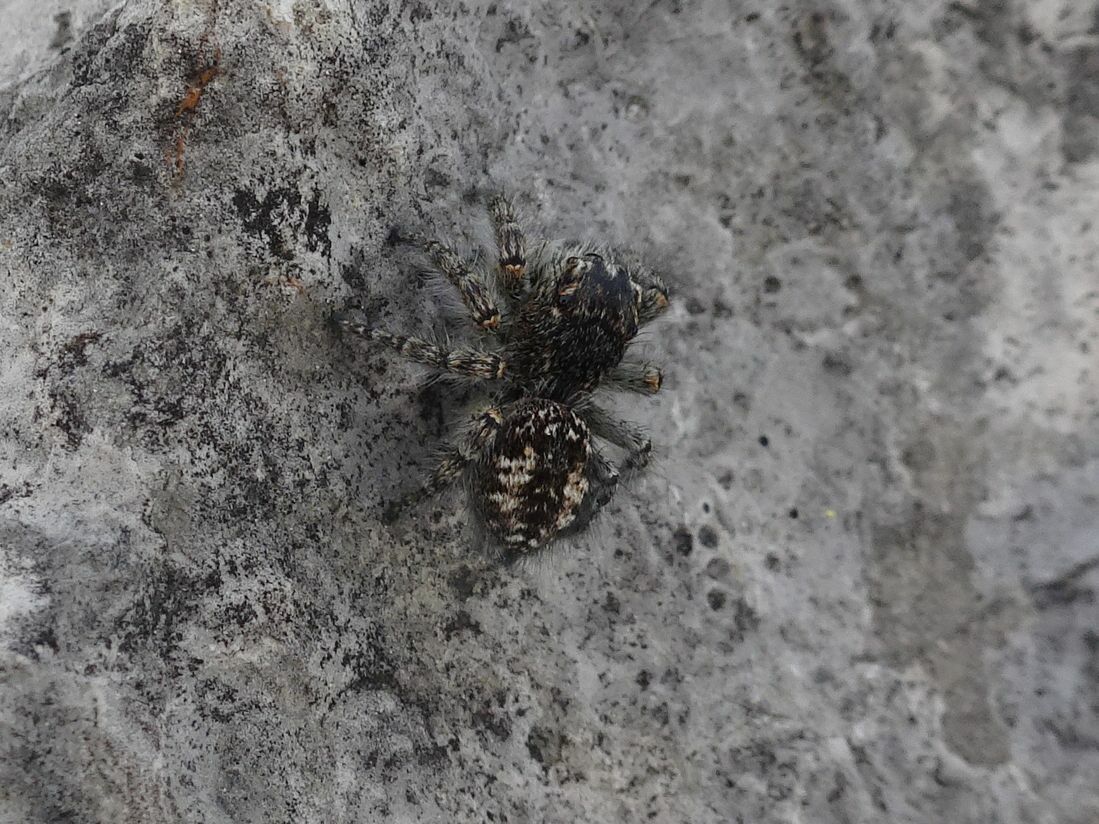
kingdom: Animalia
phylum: Arthropoda
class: Arachnida
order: Araneae
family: Salticidae
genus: Philaeus
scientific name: Philaeus chrysops
